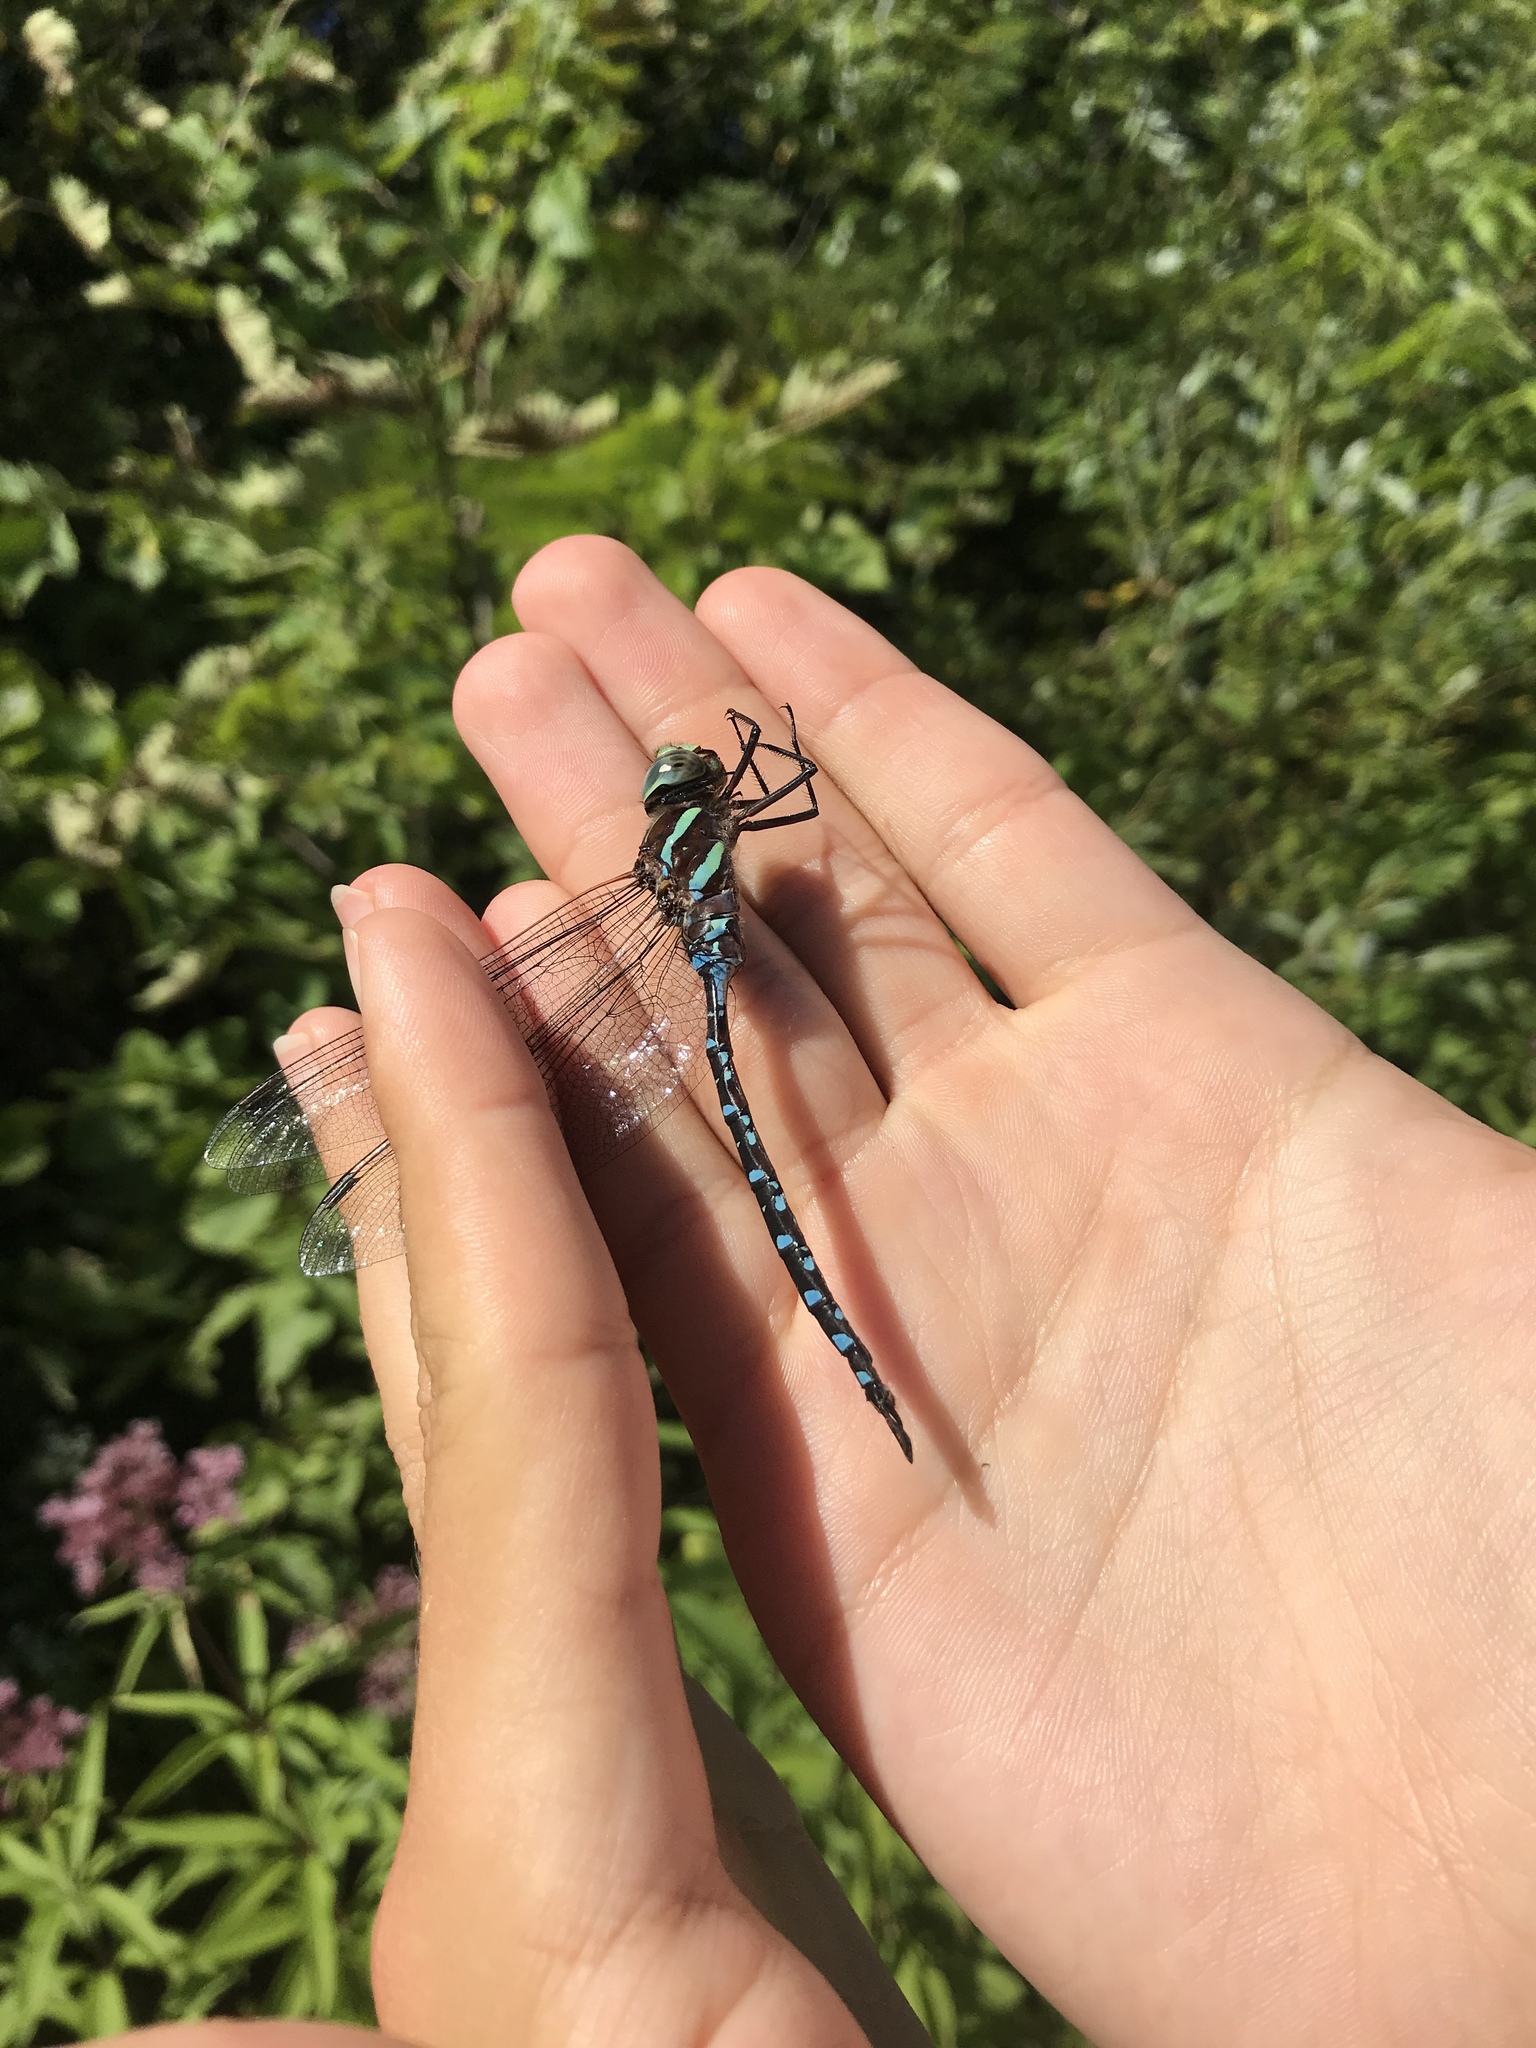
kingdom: Animalia
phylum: Arthropoda
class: Insecta
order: Odonata
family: Aeshnidae
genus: Aeshna
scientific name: Aeshna tuberculifera
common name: Aeschne à tubercules
